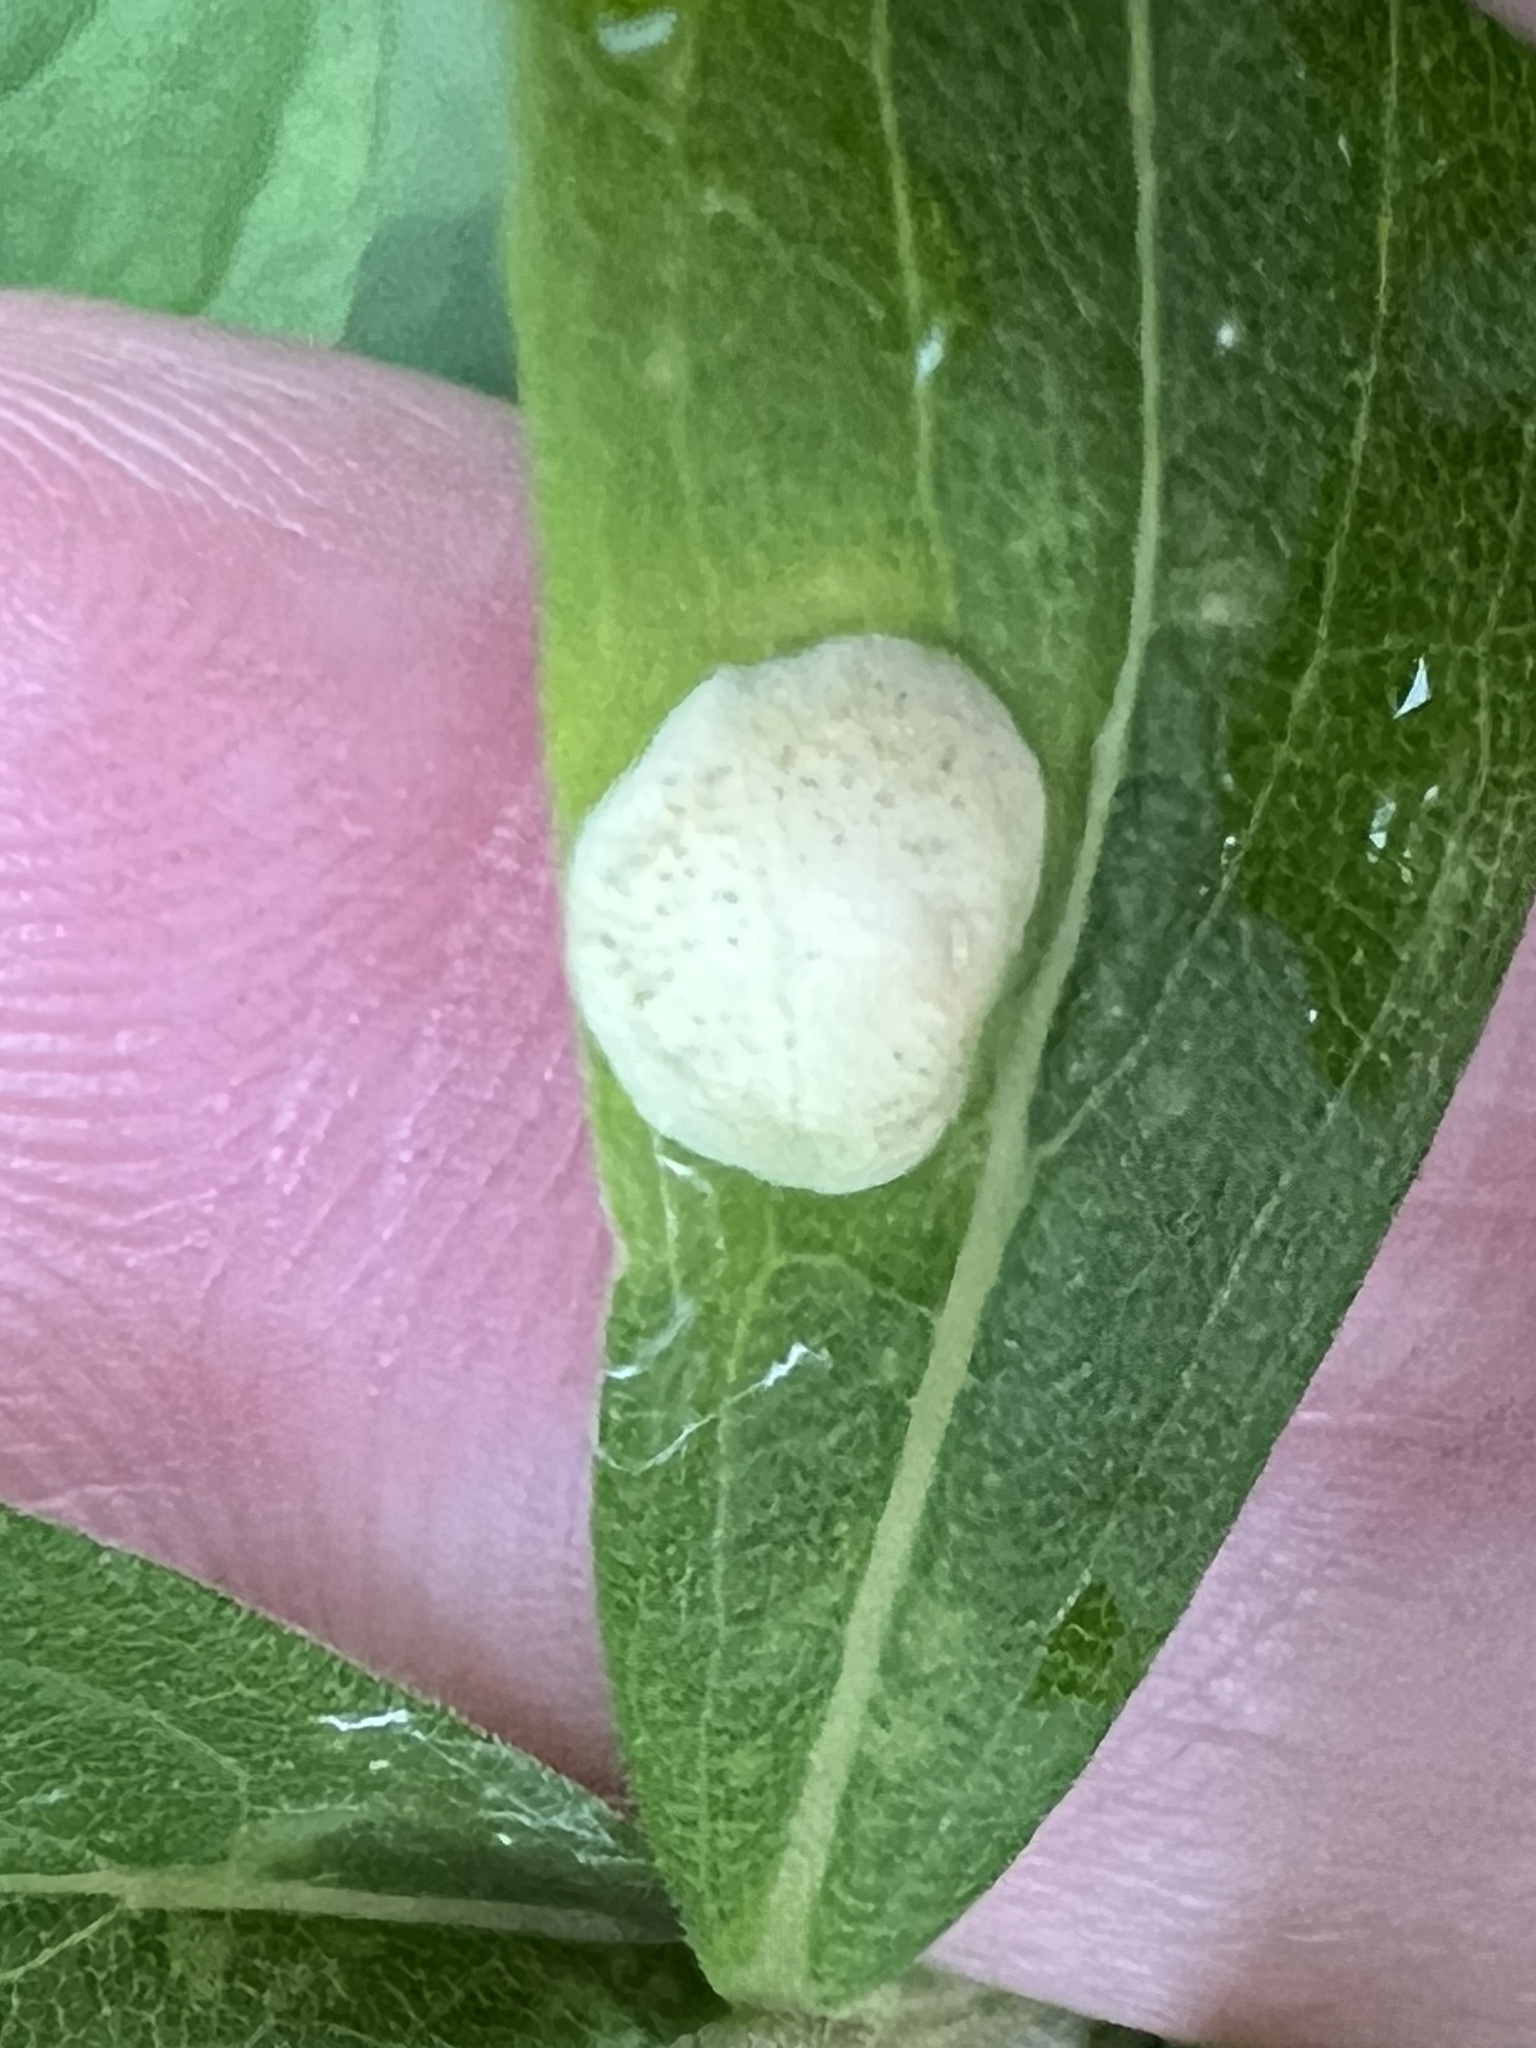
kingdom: Animalia
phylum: Arthropoda
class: Insecta
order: Diptera
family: Cecidomyiidae
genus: Asteromyia
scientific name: Asteromyia carbonifera
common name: Carbonifera goldenrod gall midge
